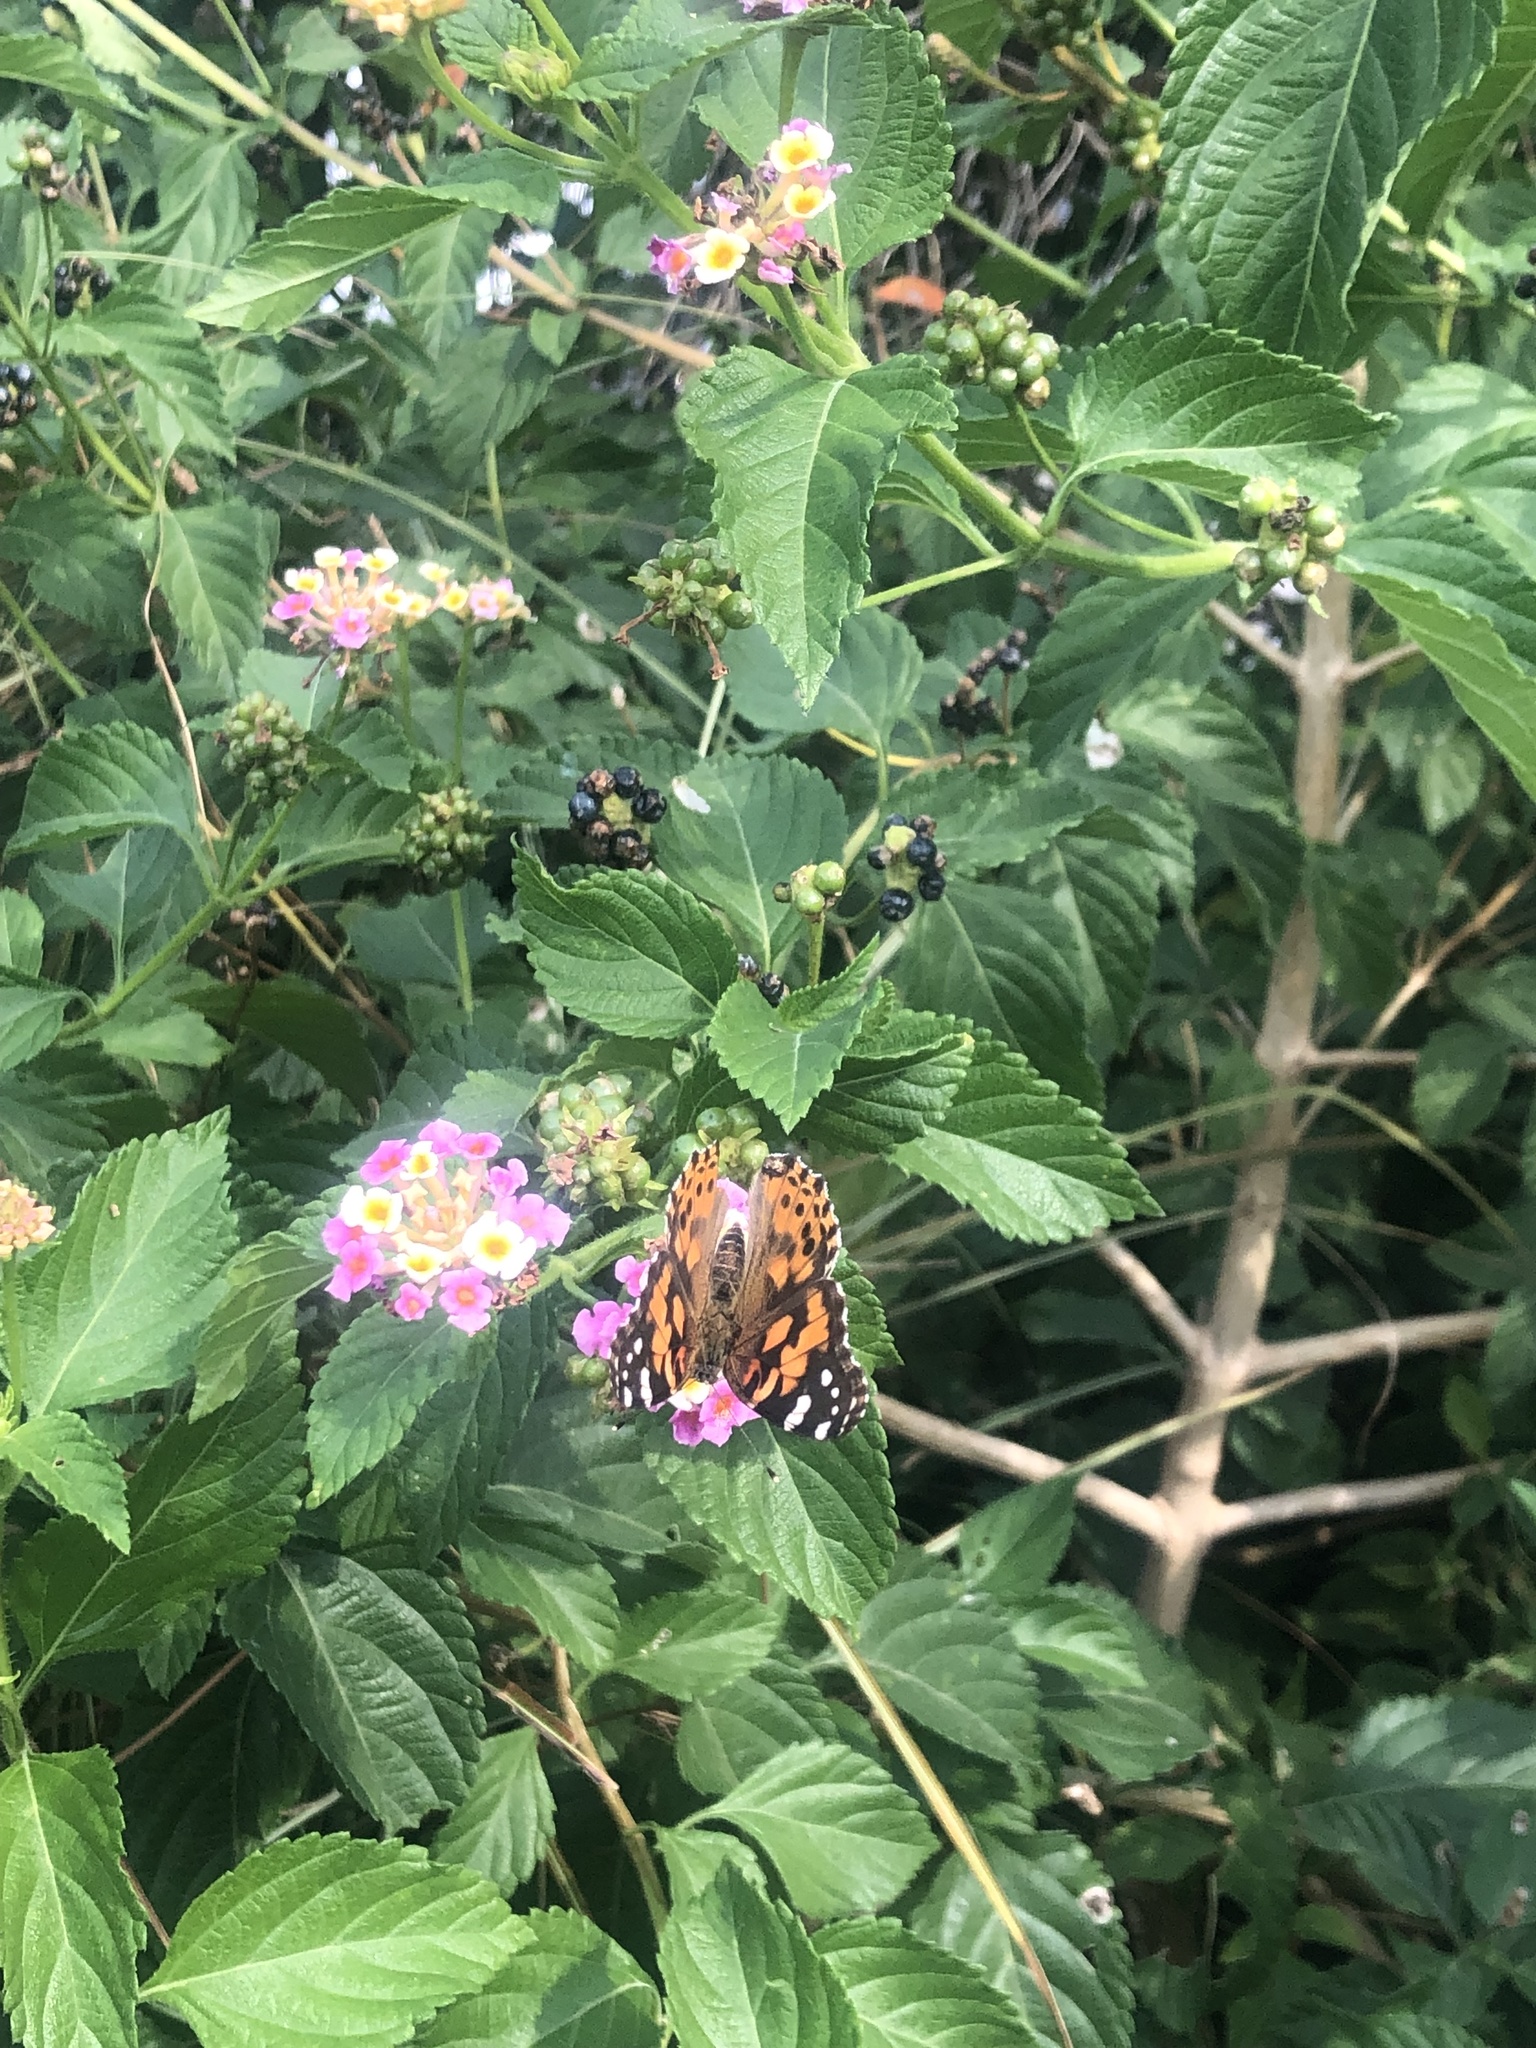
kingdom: Animalia
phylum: Arthropoda
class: Insecta
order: Lepidoptera
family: Nymphalidae
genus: Vanessa
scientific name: Vanessa cardui
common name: Painted lady
